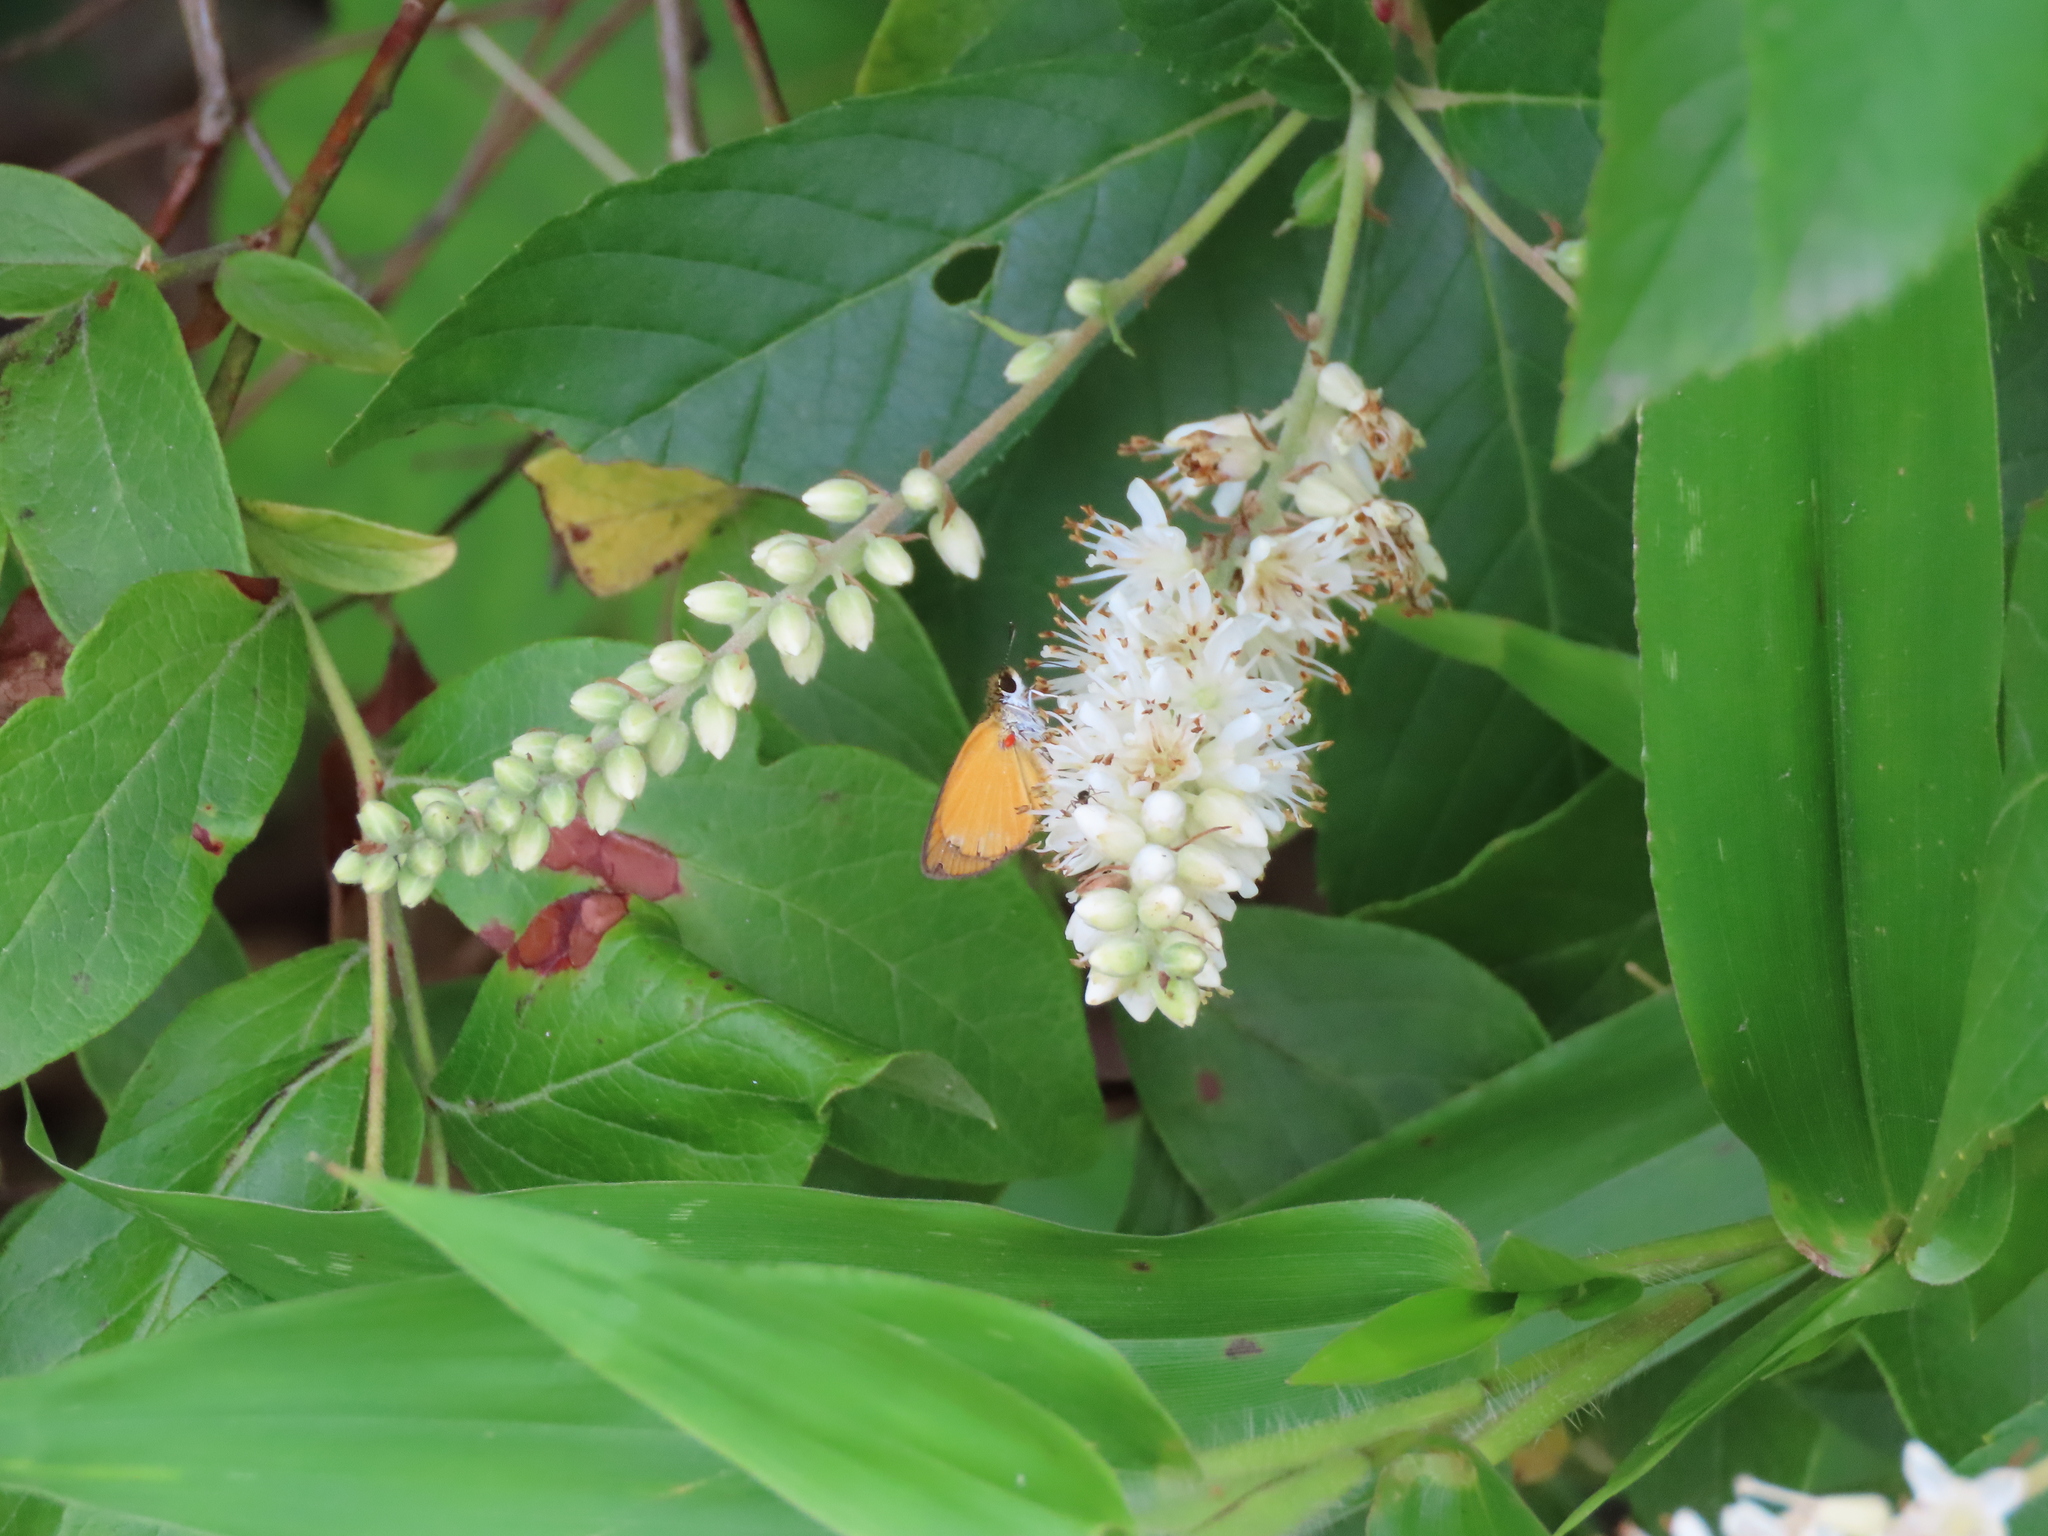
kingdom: Animalia
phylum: Arthropoda
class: Insecta
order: Lepidoptera
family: Hesperiidae
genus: Ancyloxypha
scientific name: Ancyloxypha numitor
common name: Least skipper
